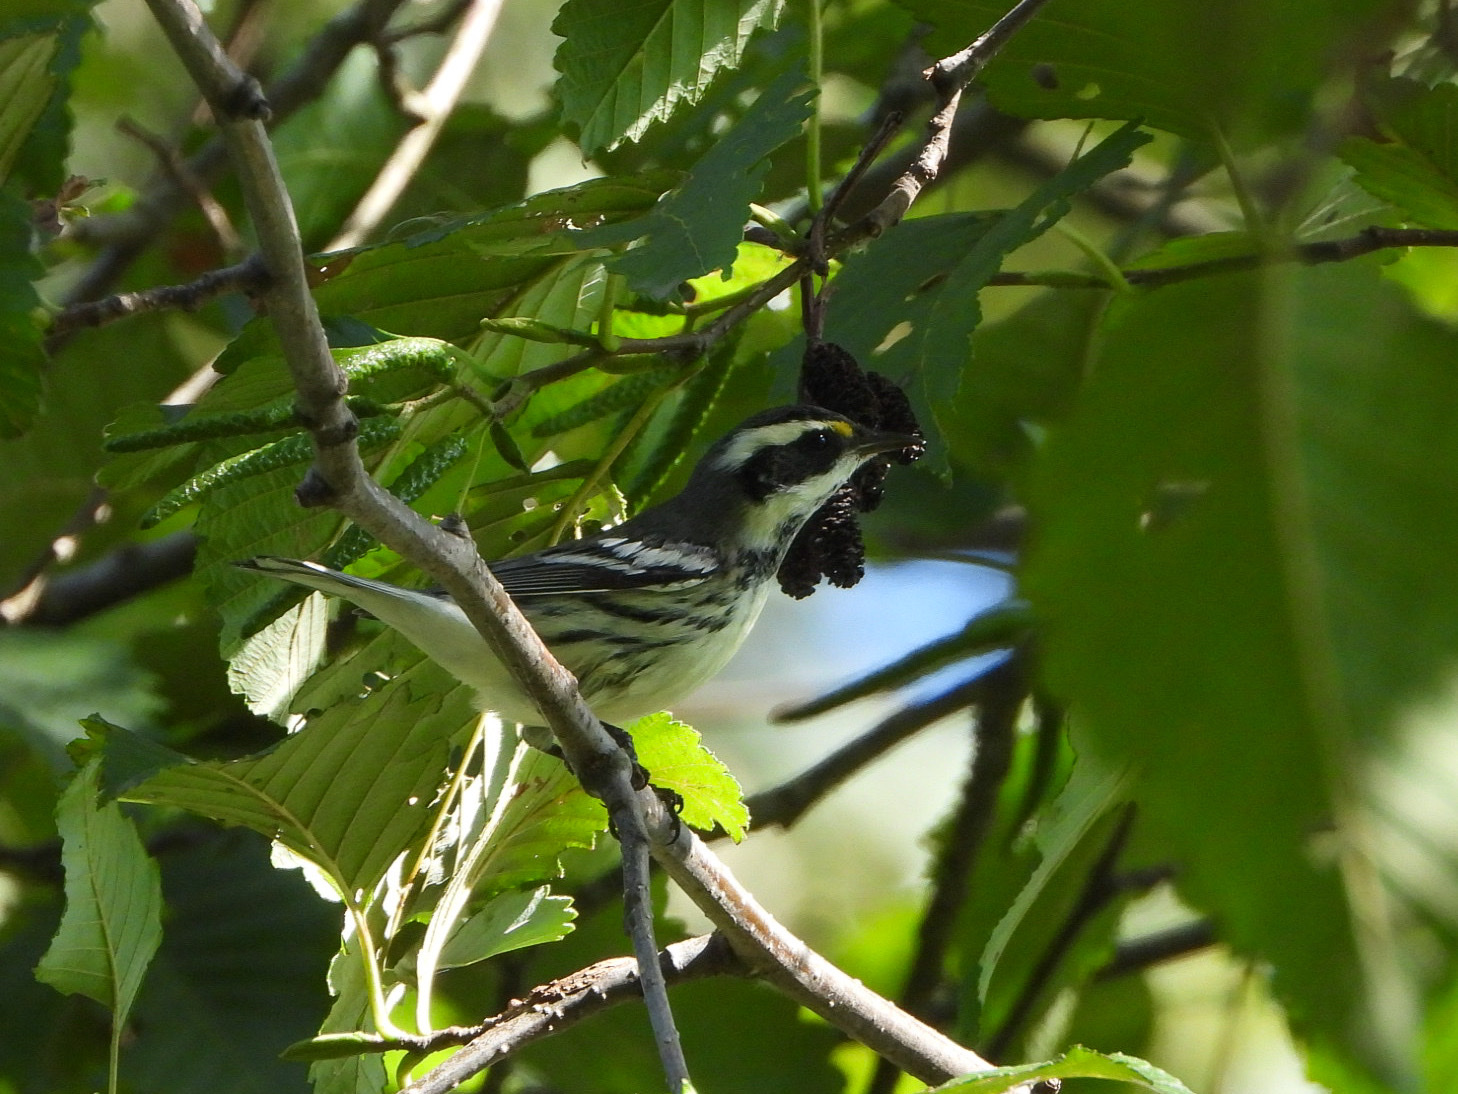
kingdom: Animalia
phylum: Chordata
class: Aves
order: Passeriformes
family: Parulidae
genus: Setophaga
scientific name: Setophaga nigrescens
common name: Black-throated gray warbler
